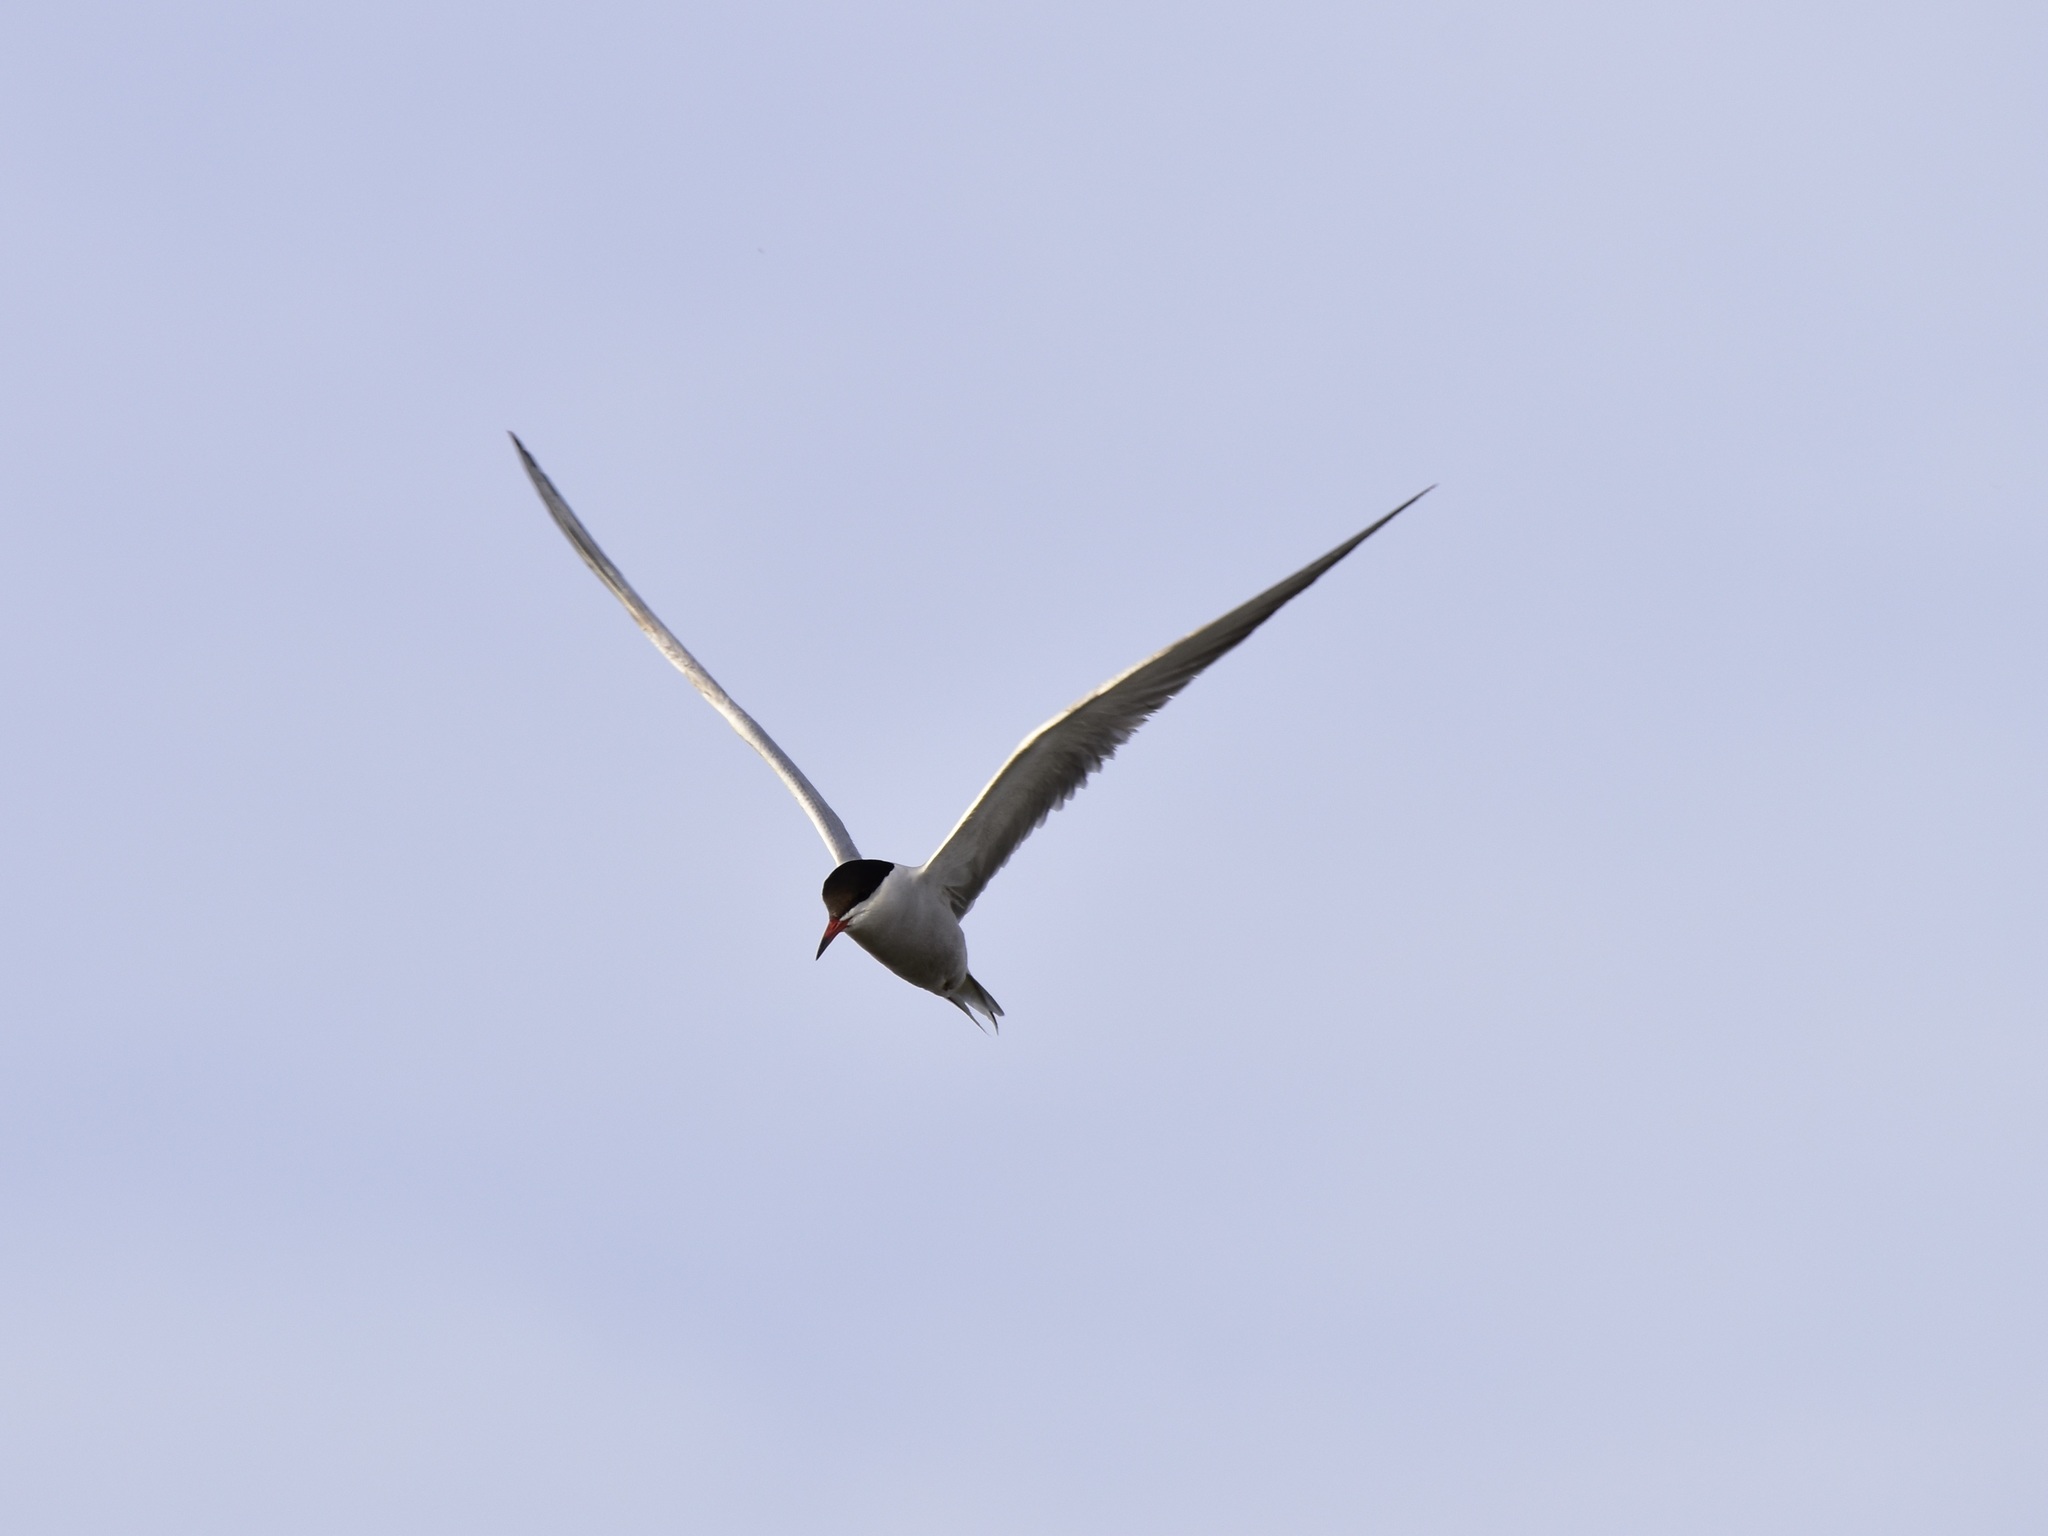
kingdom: Animalia
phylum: Chordata
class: Aves
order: Charadriiformes
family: Laridae
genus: Sterna
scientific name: Sterna hirundo
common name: Common tern
